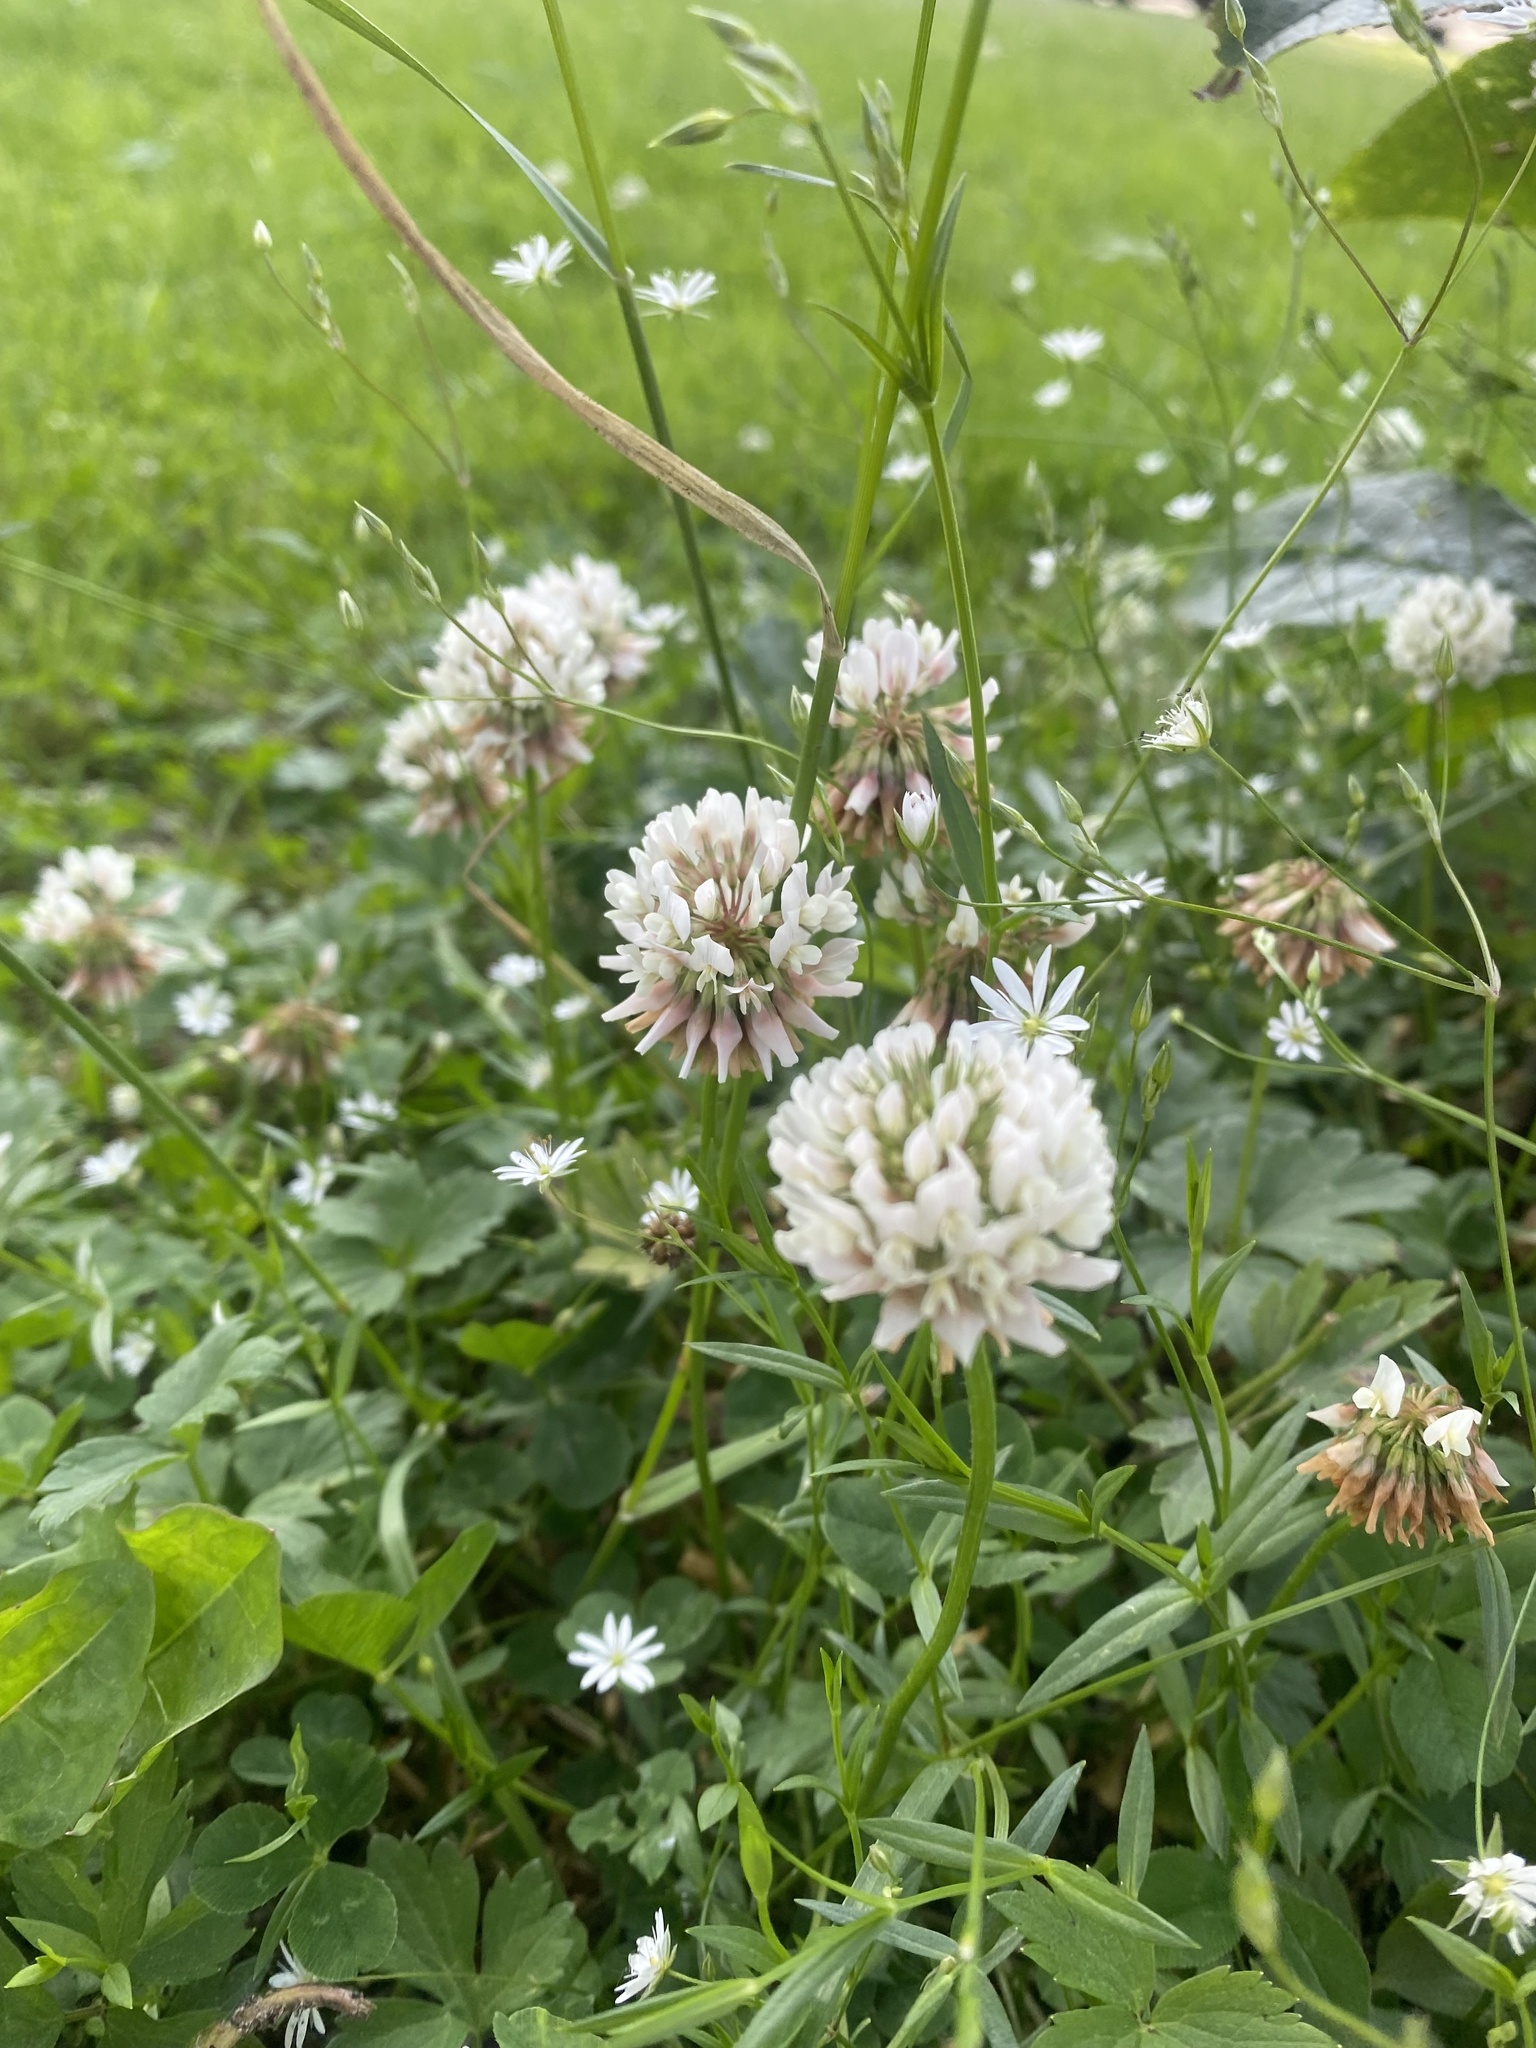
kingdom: Plantae
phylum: Tracheophyta
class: Magnoliopsida
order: Fabales
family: Fabaceae
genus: Trifolium
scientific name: Trifolium repens
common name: White clover
